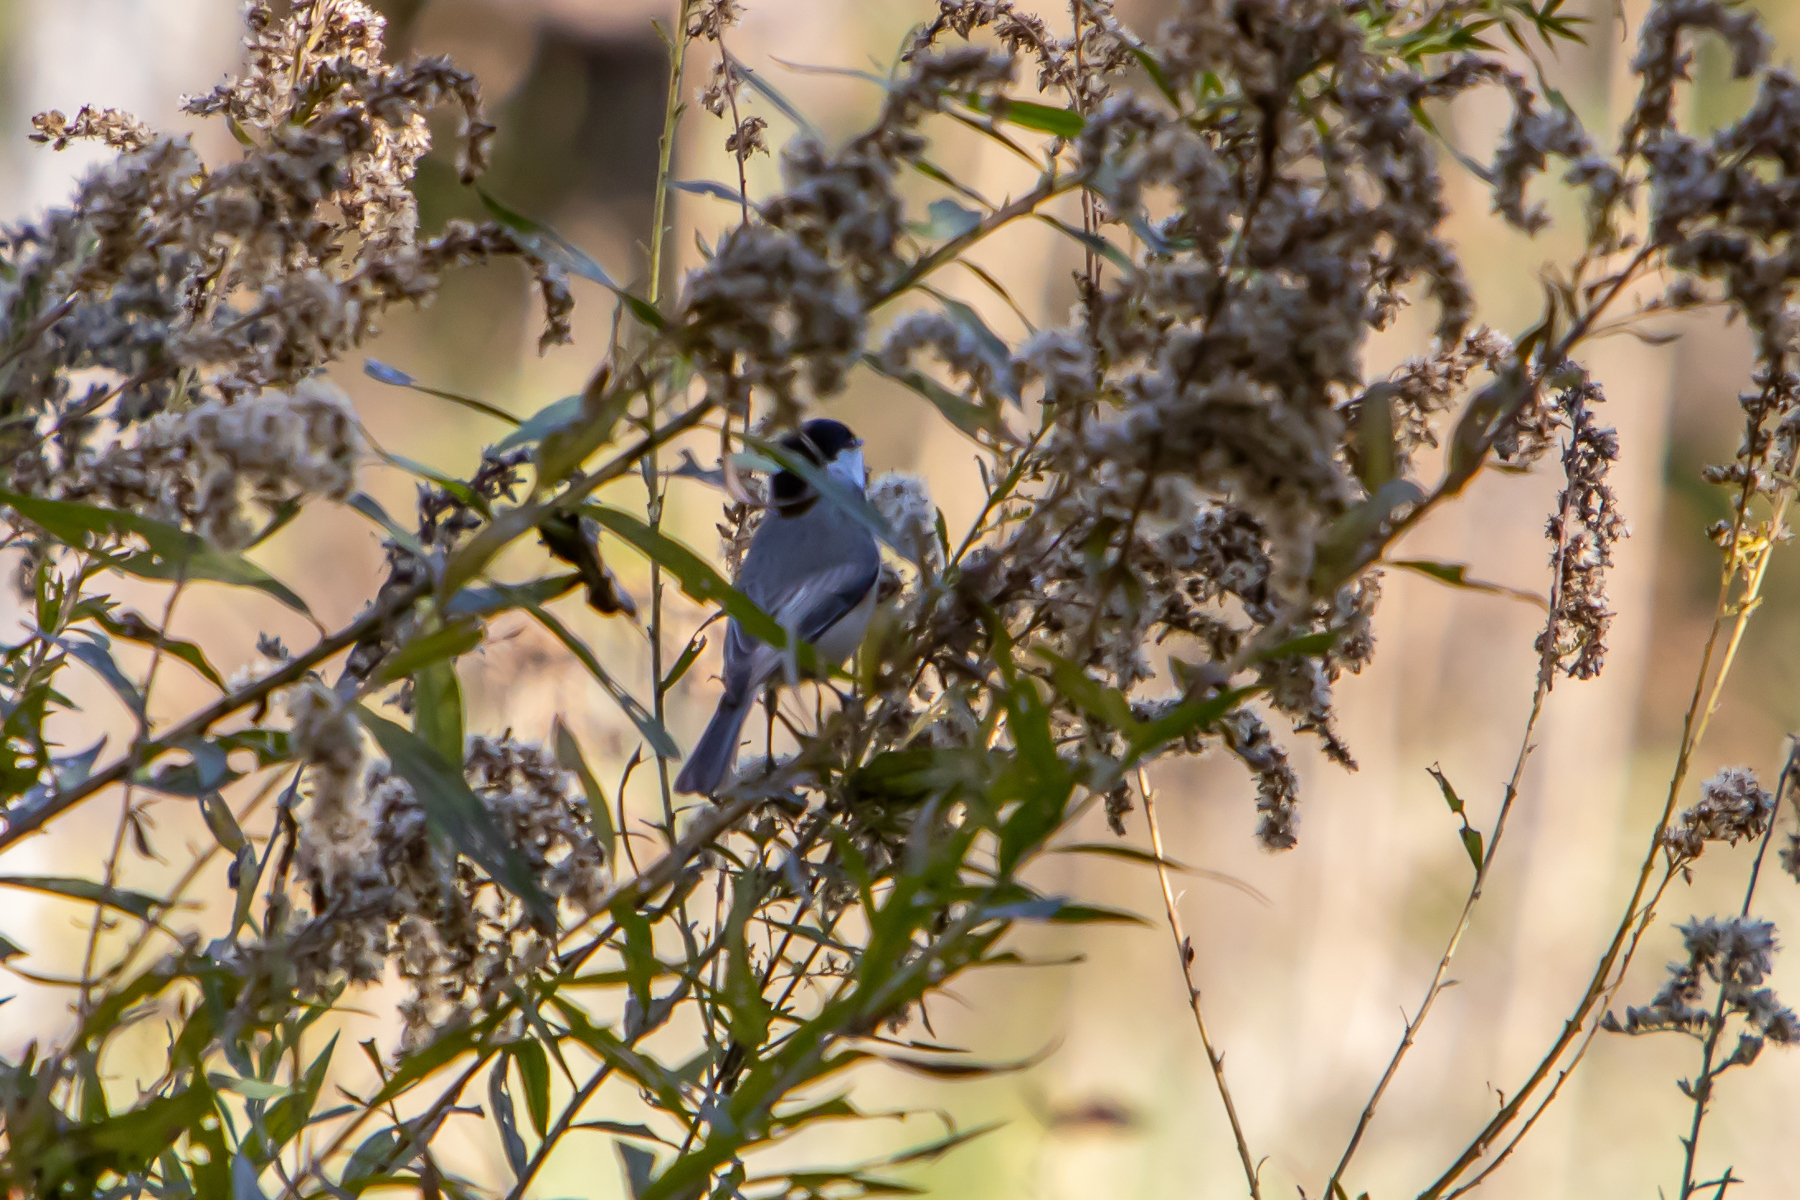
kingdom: Animalia
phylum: Chordata
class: Aves
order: Passeriformes
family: Paridae
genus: Poecile
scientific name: Poecile carolinensis
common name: Carolina chickadee
